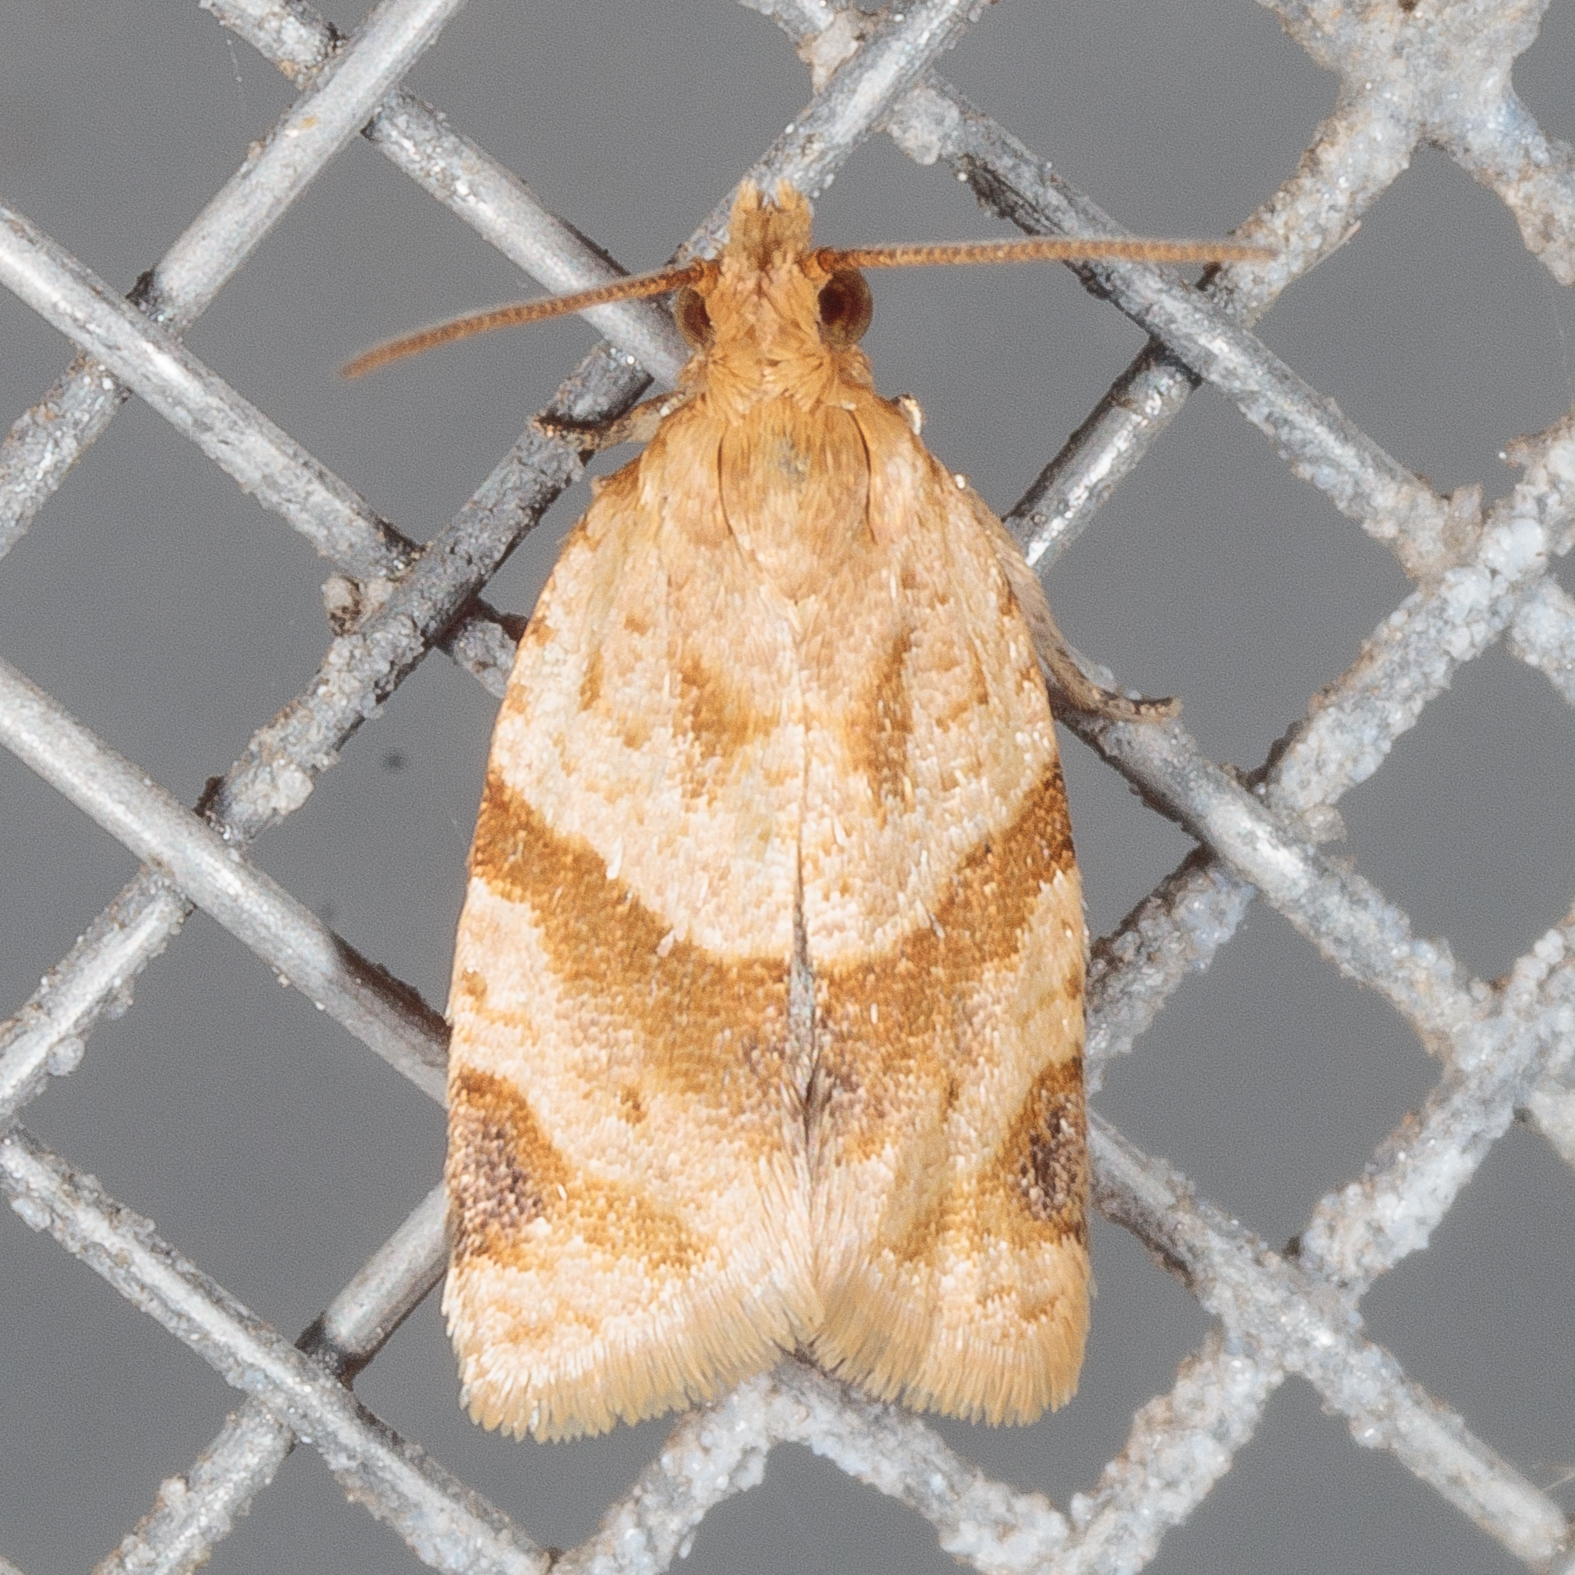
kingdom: Animalia
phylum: Arthropoda
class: Insecta
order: Lepidoptera
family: Tortricidae
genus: Clepsis
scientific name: Clepsis peritana
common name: Garden tortrix
